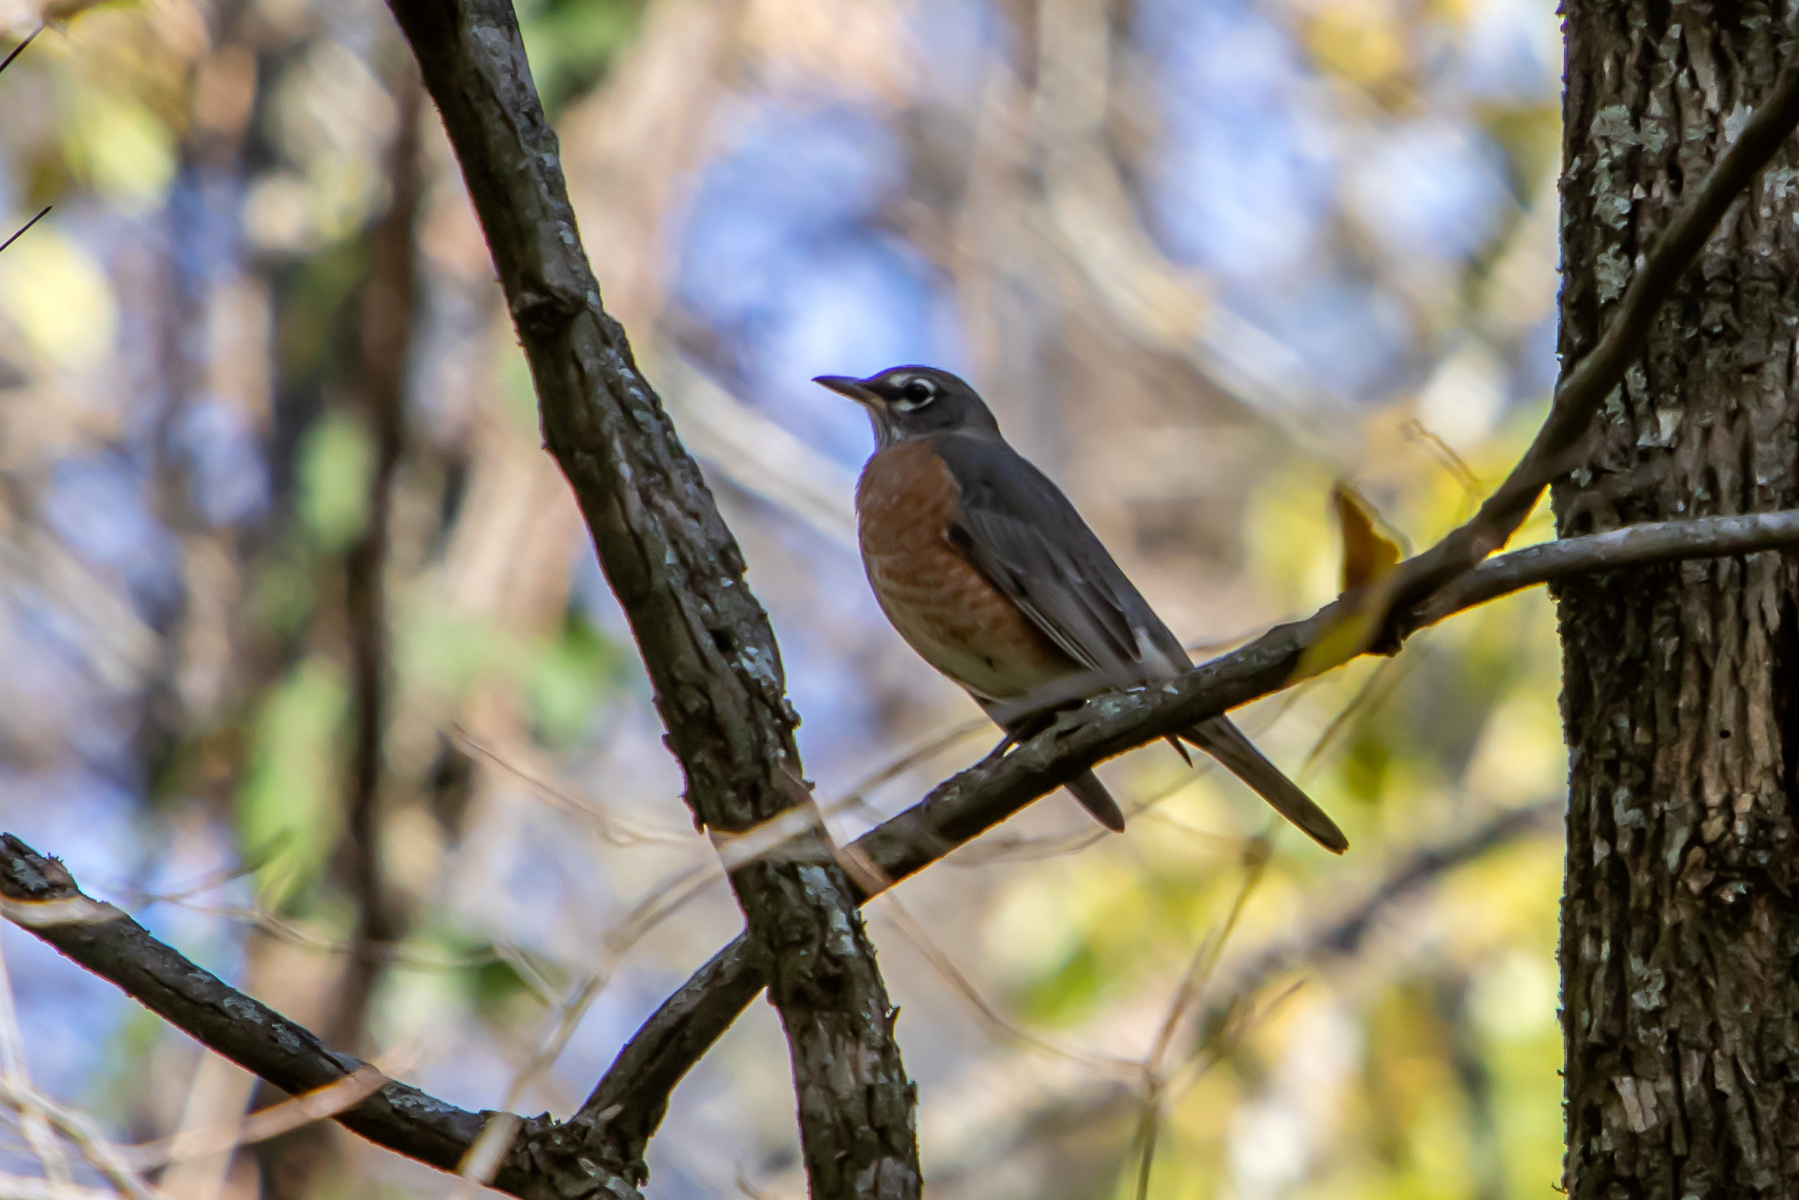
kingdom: Animalia
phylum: Chordata
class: Aves
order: Passeriformes
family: Turdidae
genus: Turdus
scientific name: Turdus migratorius
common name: American robin
